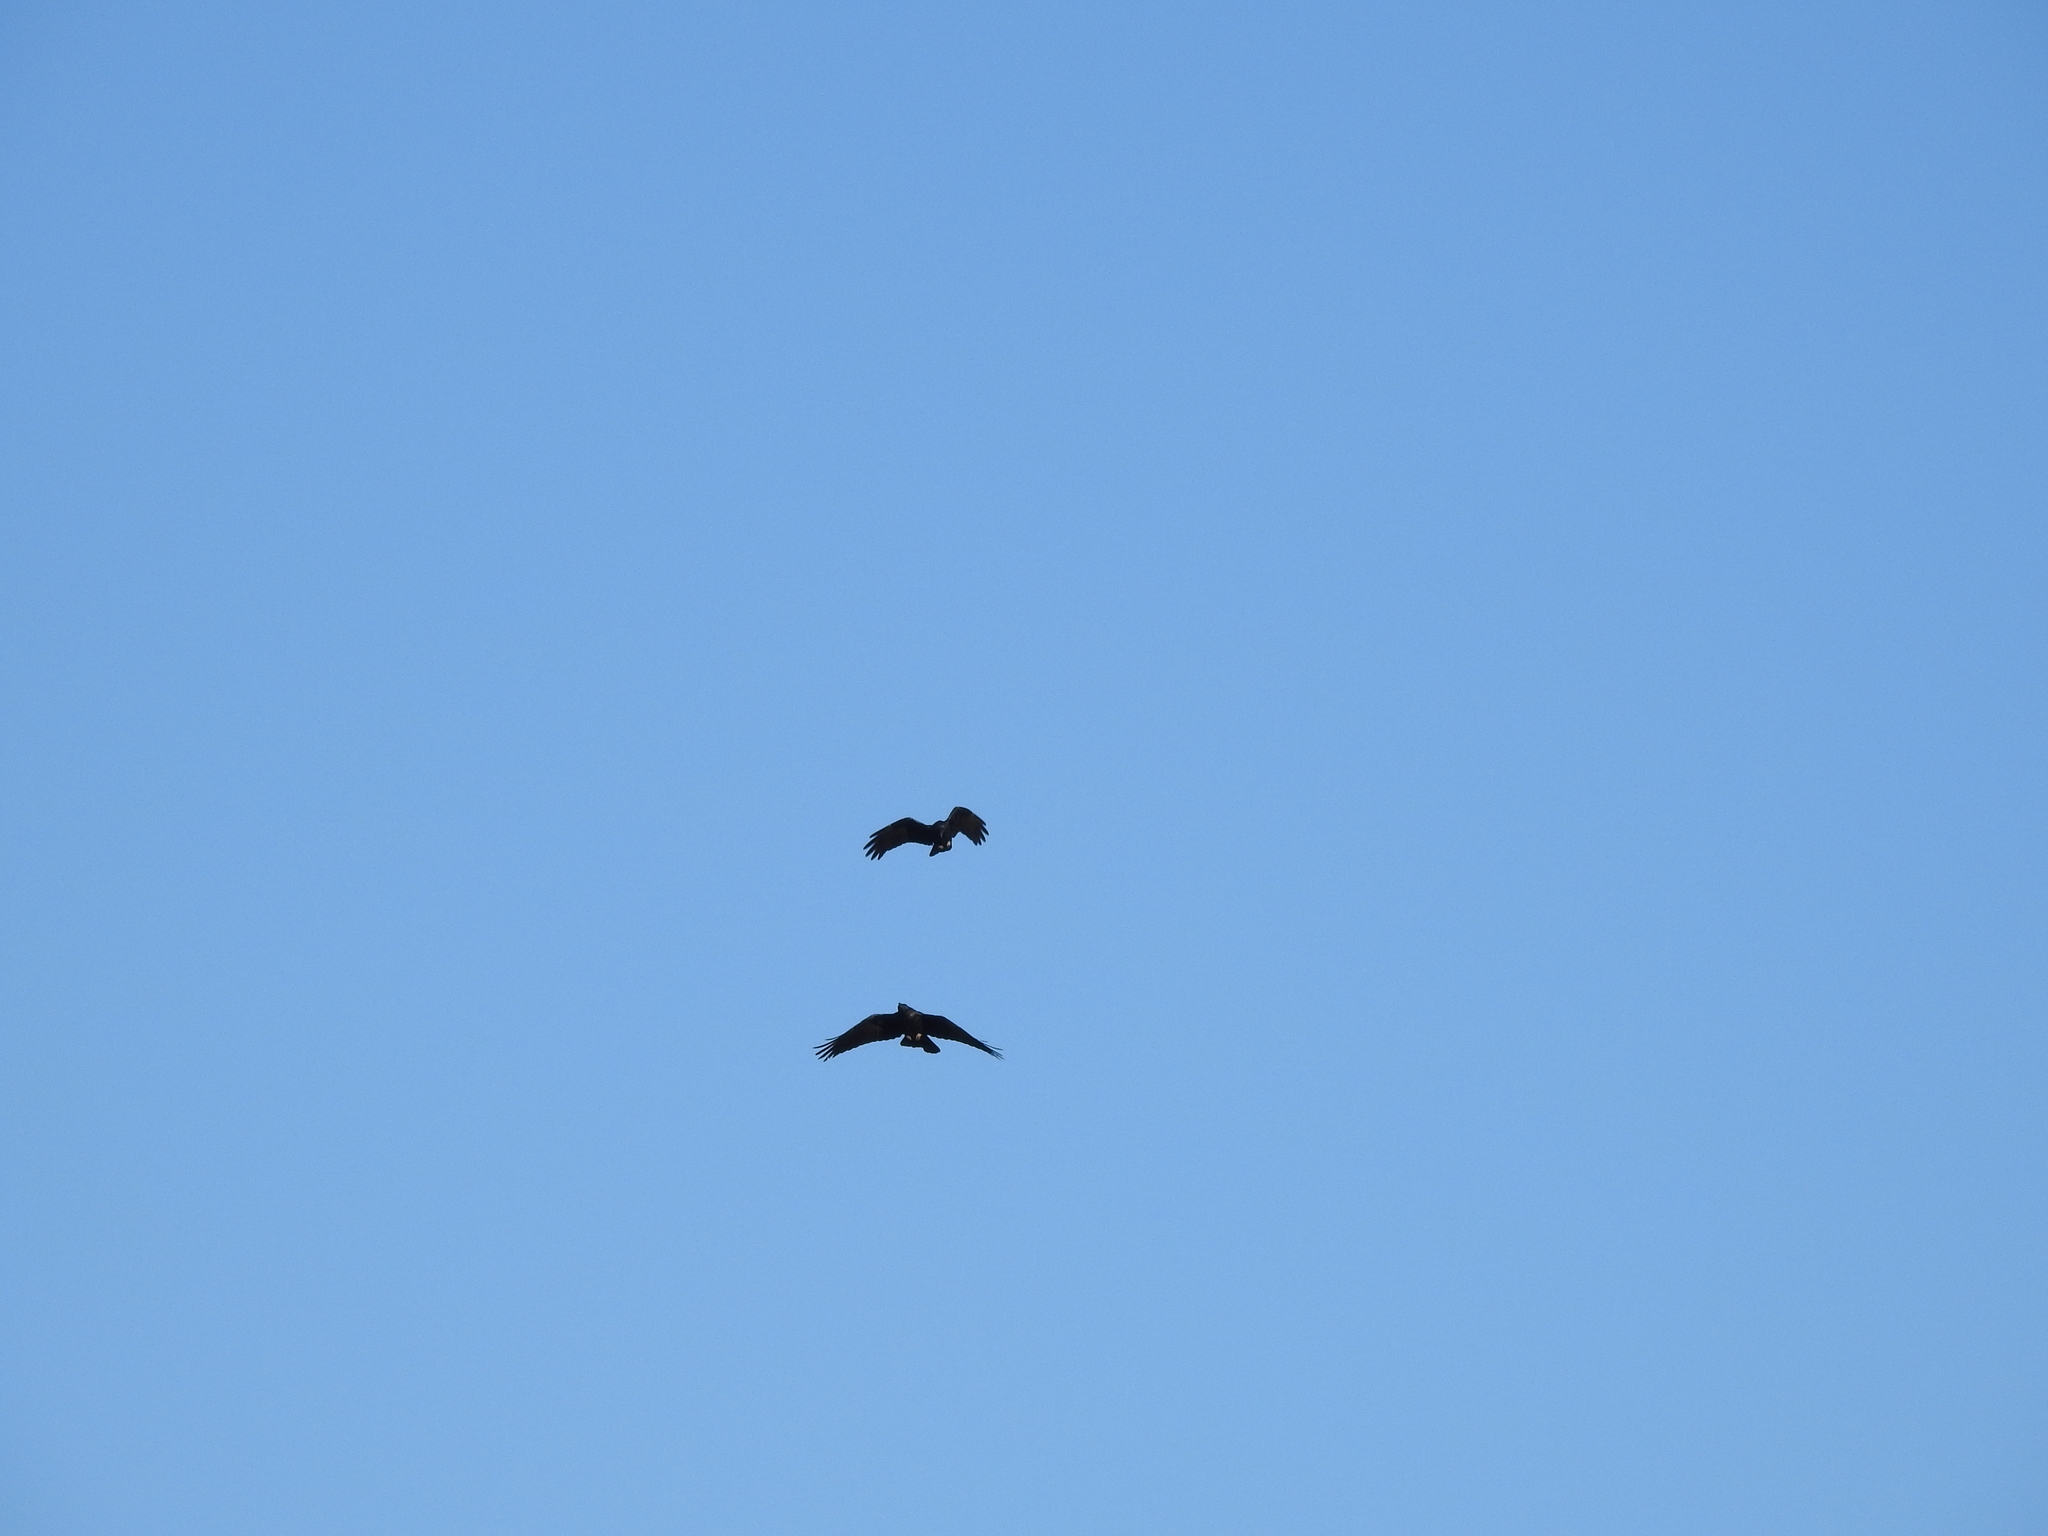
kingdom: Animalia
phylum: Chordata
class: Aves
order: Passeriformes
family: Corvidae
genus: Corvus
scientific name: Corvus corax
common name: Common raven
